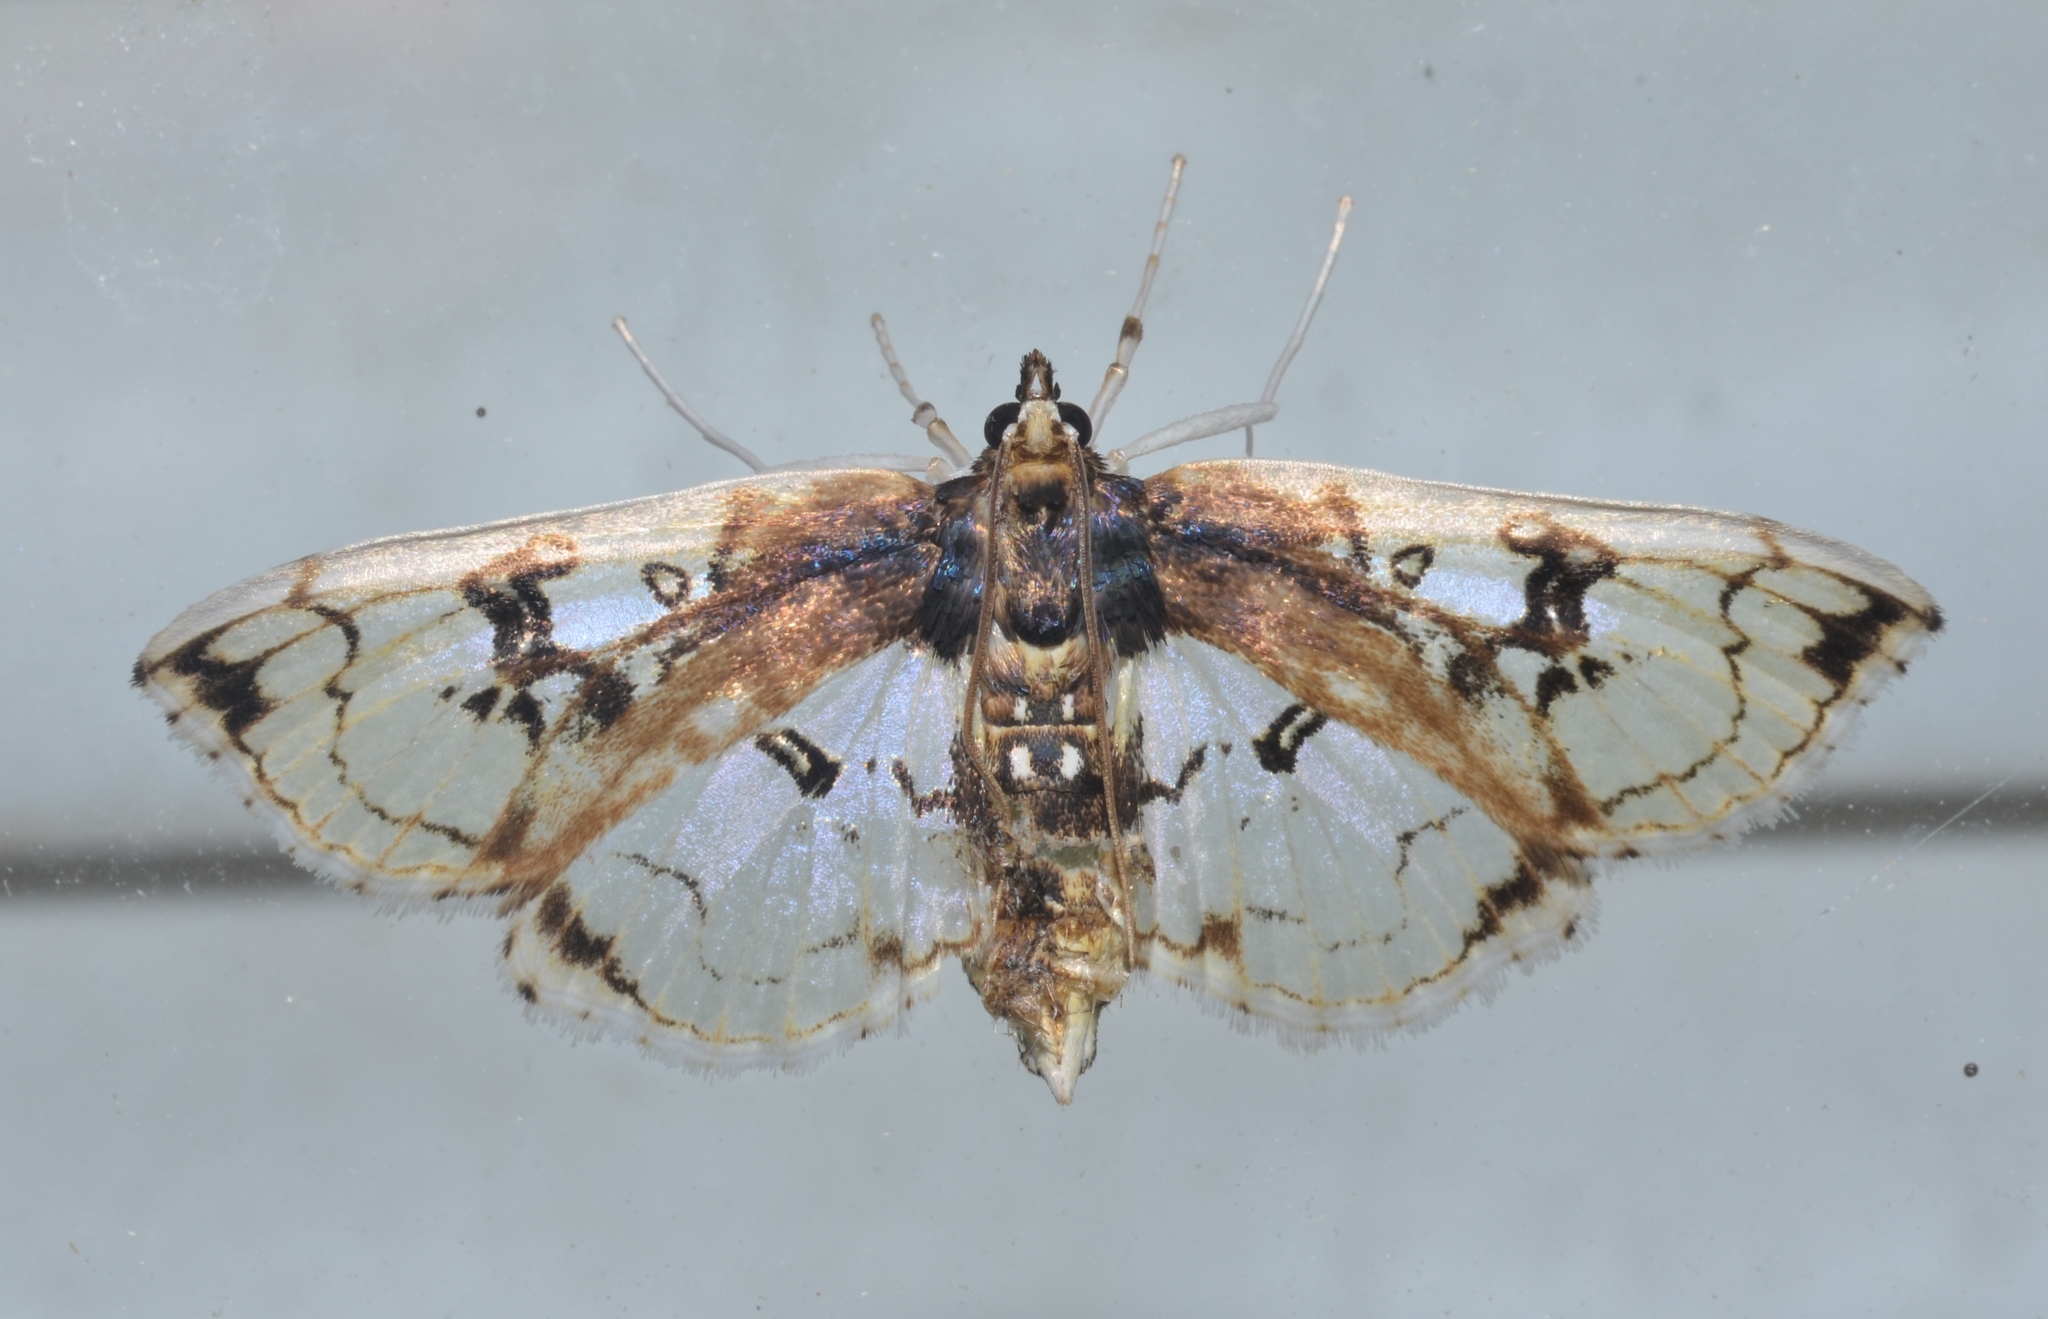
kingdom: Animalia
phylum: Arthropoda
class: Insecta
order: Lepidoptera
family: Crambidae
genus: Compacta
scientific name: Compacta capitalis
